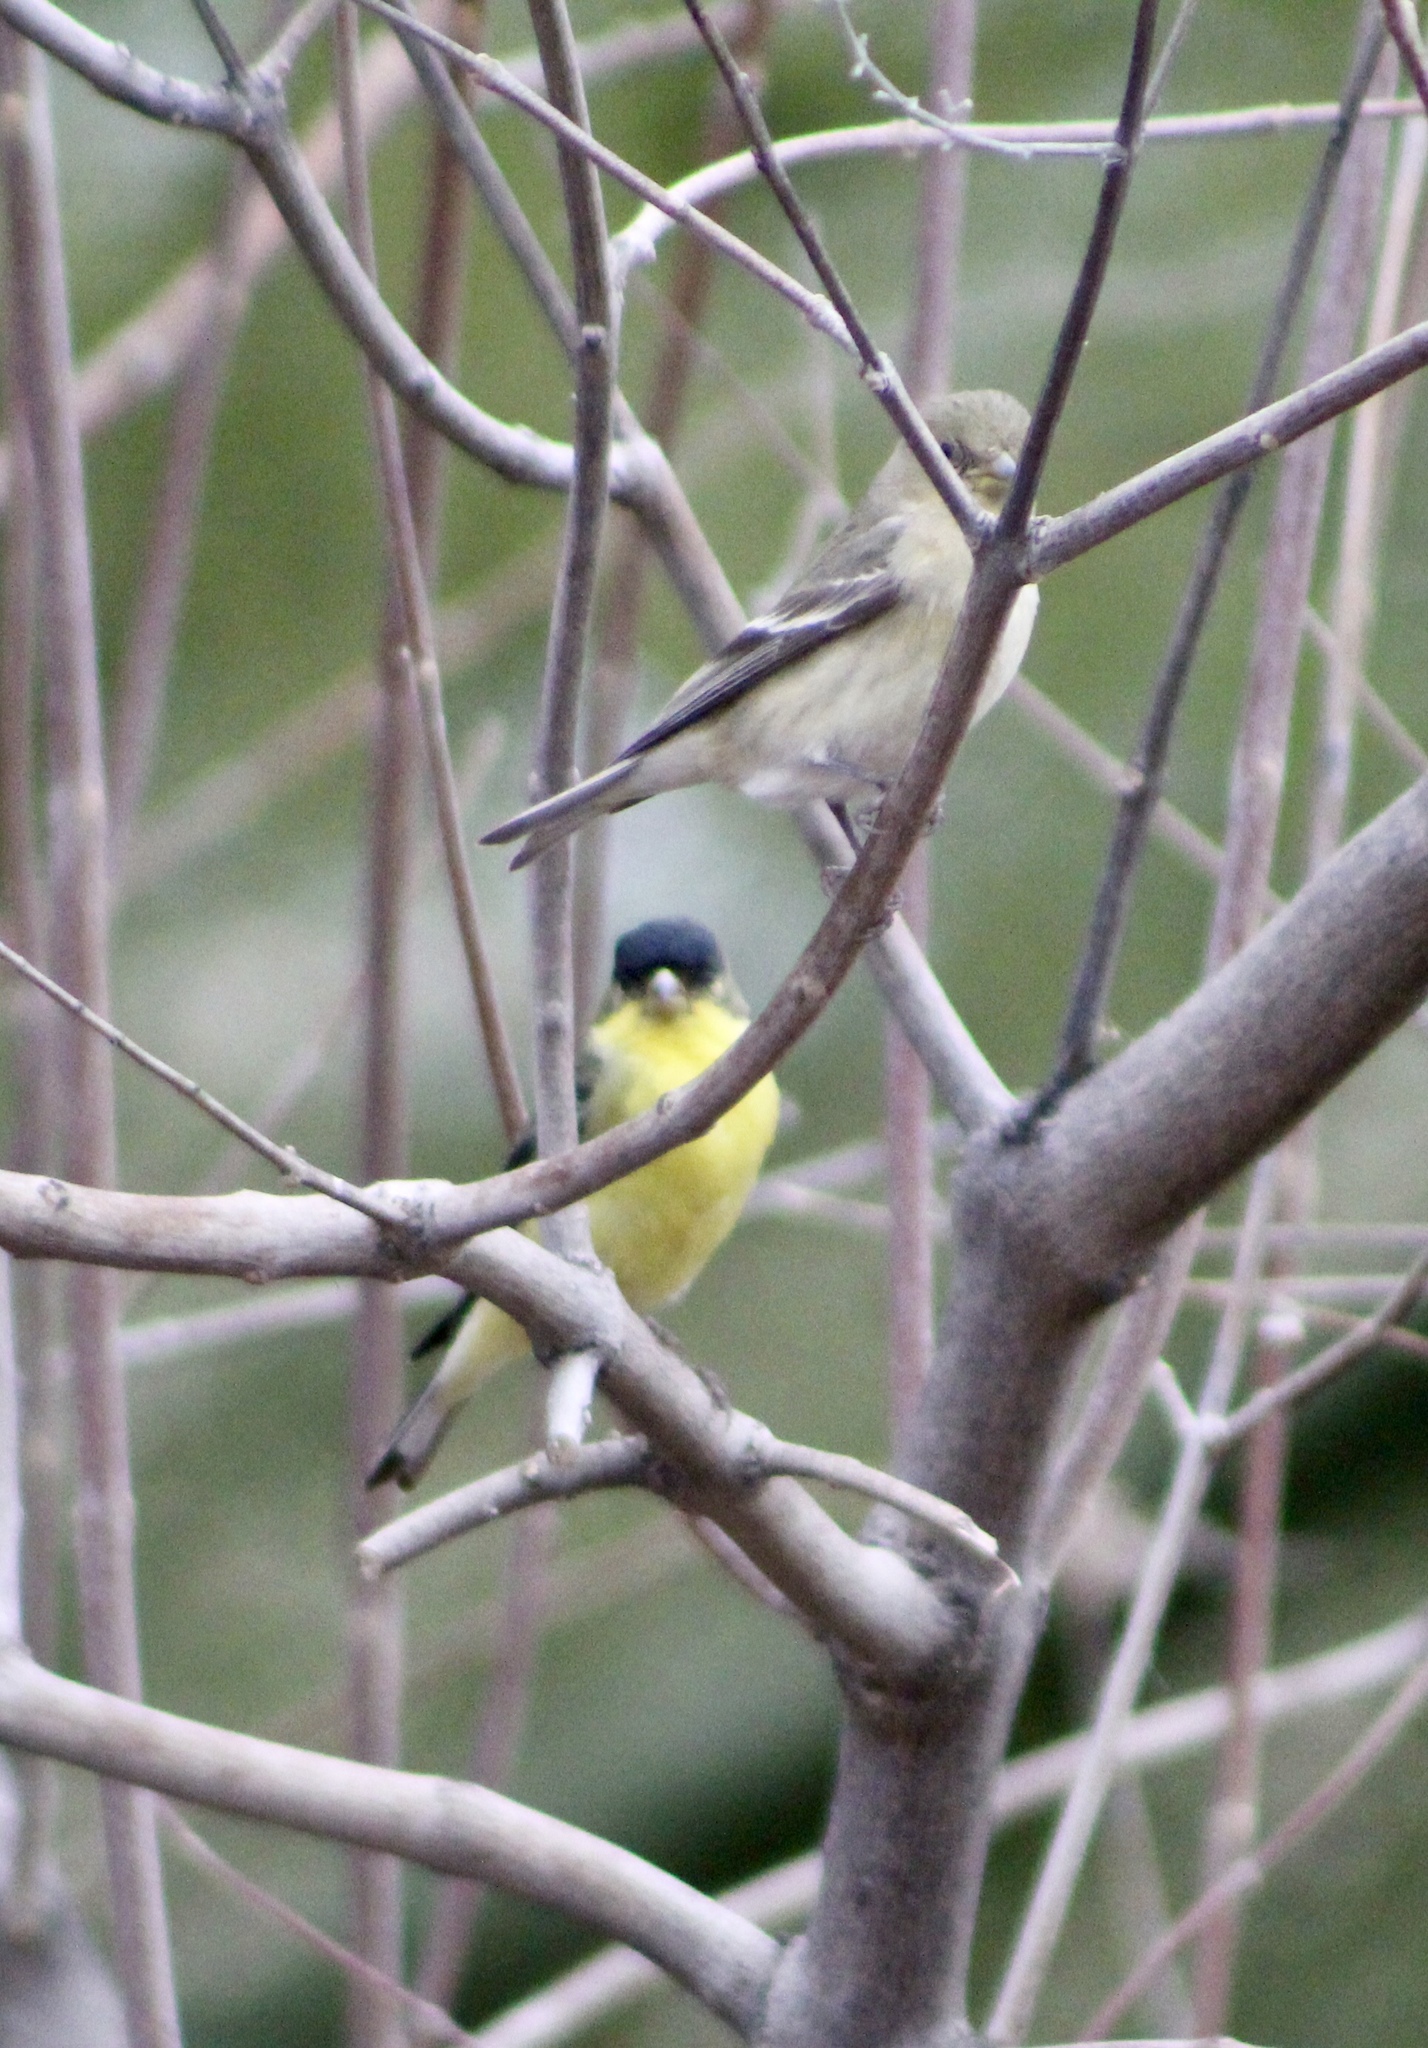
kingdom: Animalia
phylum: Chordata
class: Aves
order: Passeriformes
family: Fringillidae
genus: Spinus
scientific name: Spinus psaltria
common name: Lesser goldfinch
